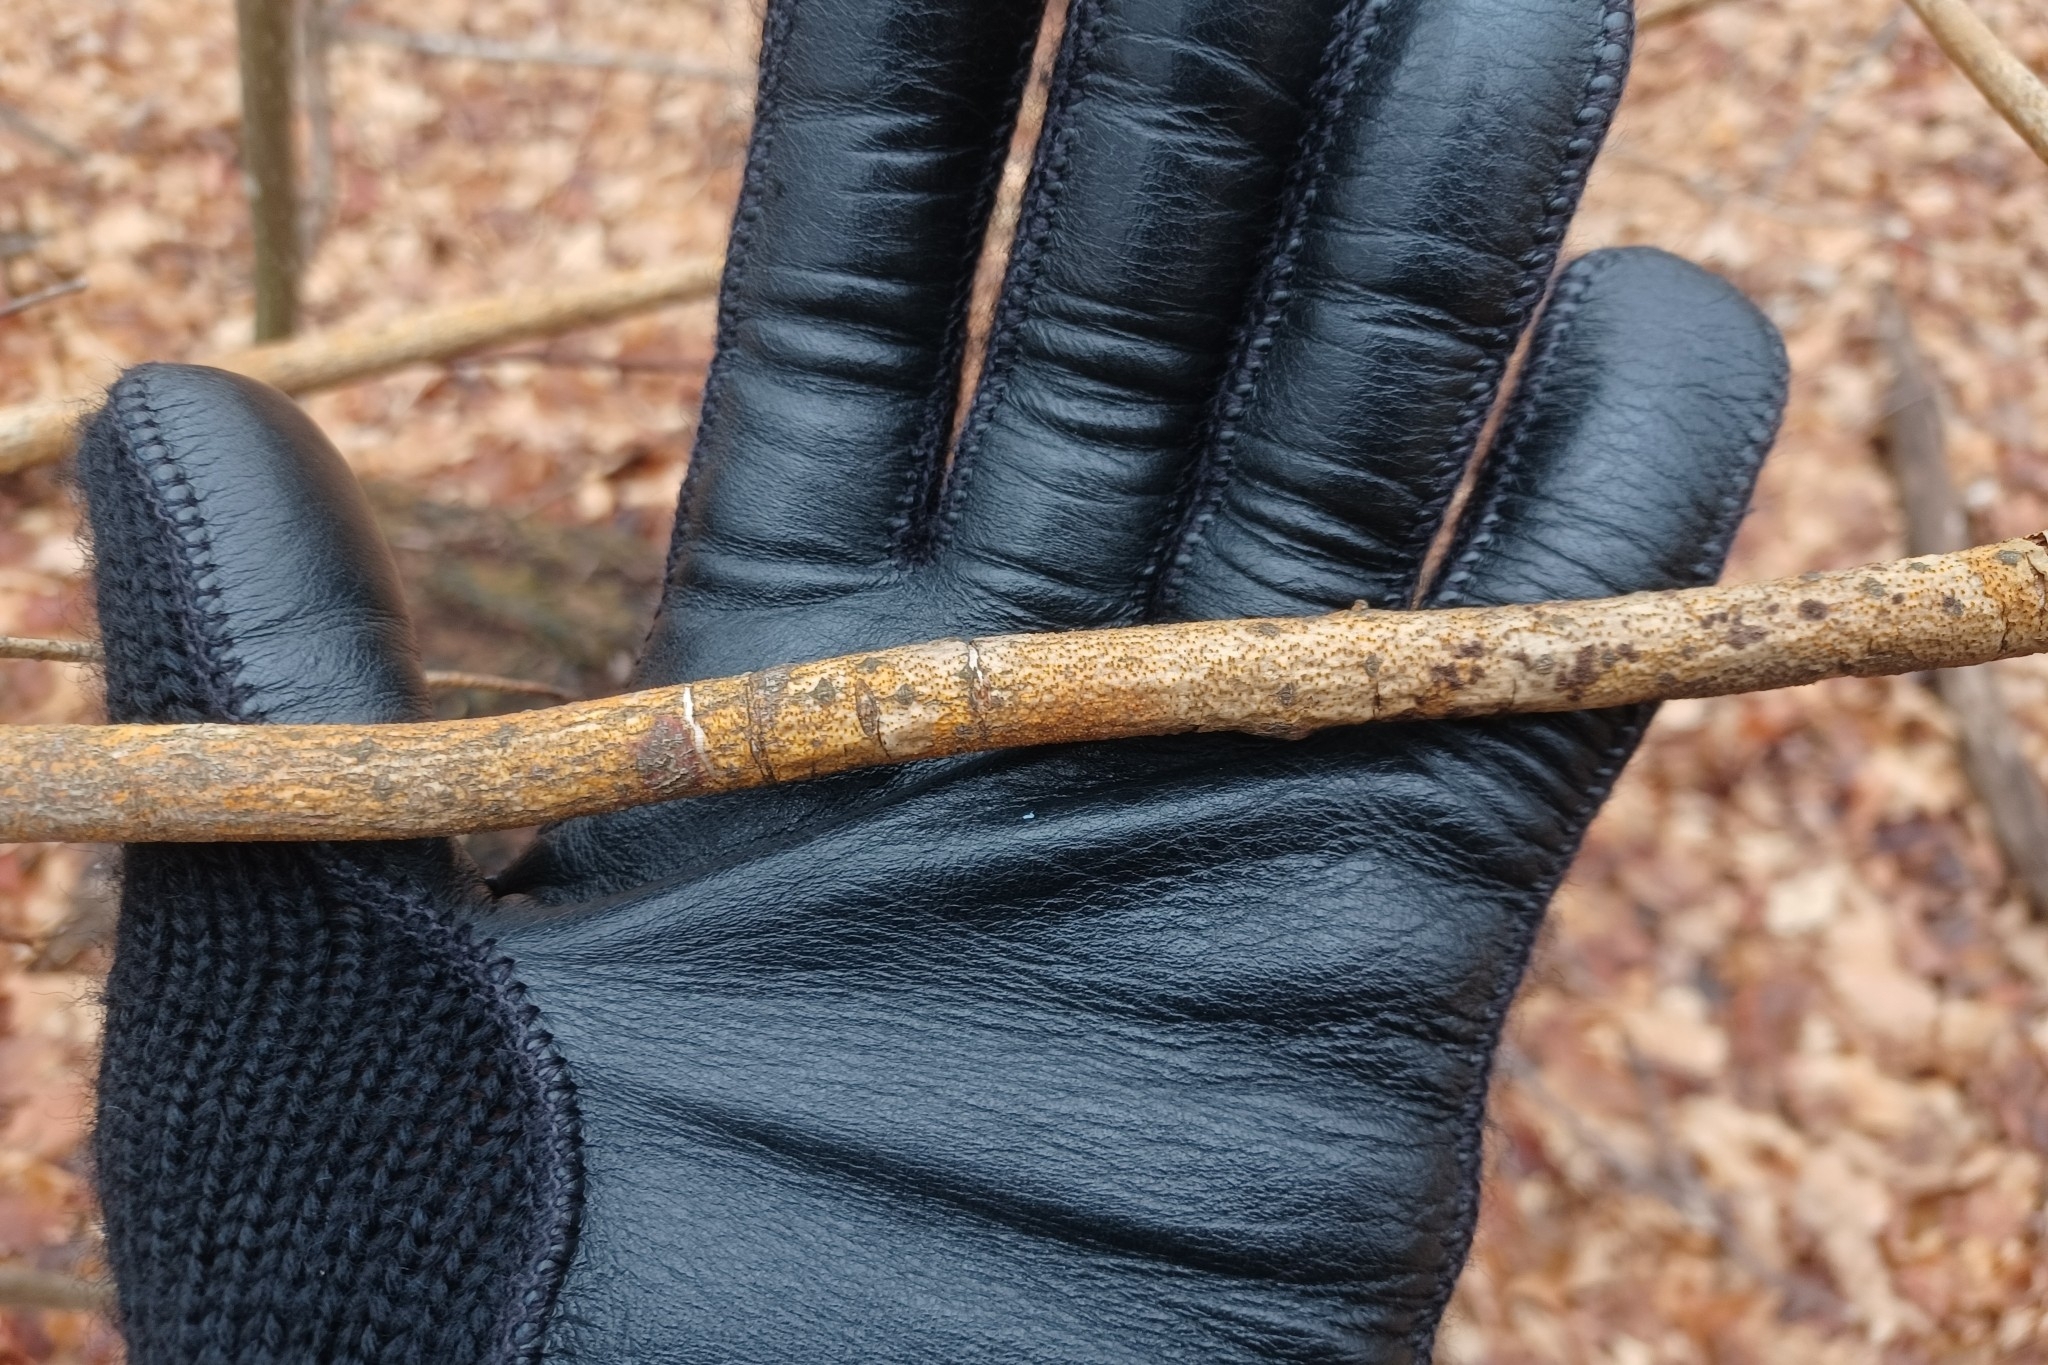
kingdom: Fungi
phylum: Ascomycota
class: Sordariomycetes
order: Diaporthales
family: Cryphonectriaceae
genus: Aurantioporthe
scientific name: Aurantioporthe corni
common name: Dogwood golden canker
